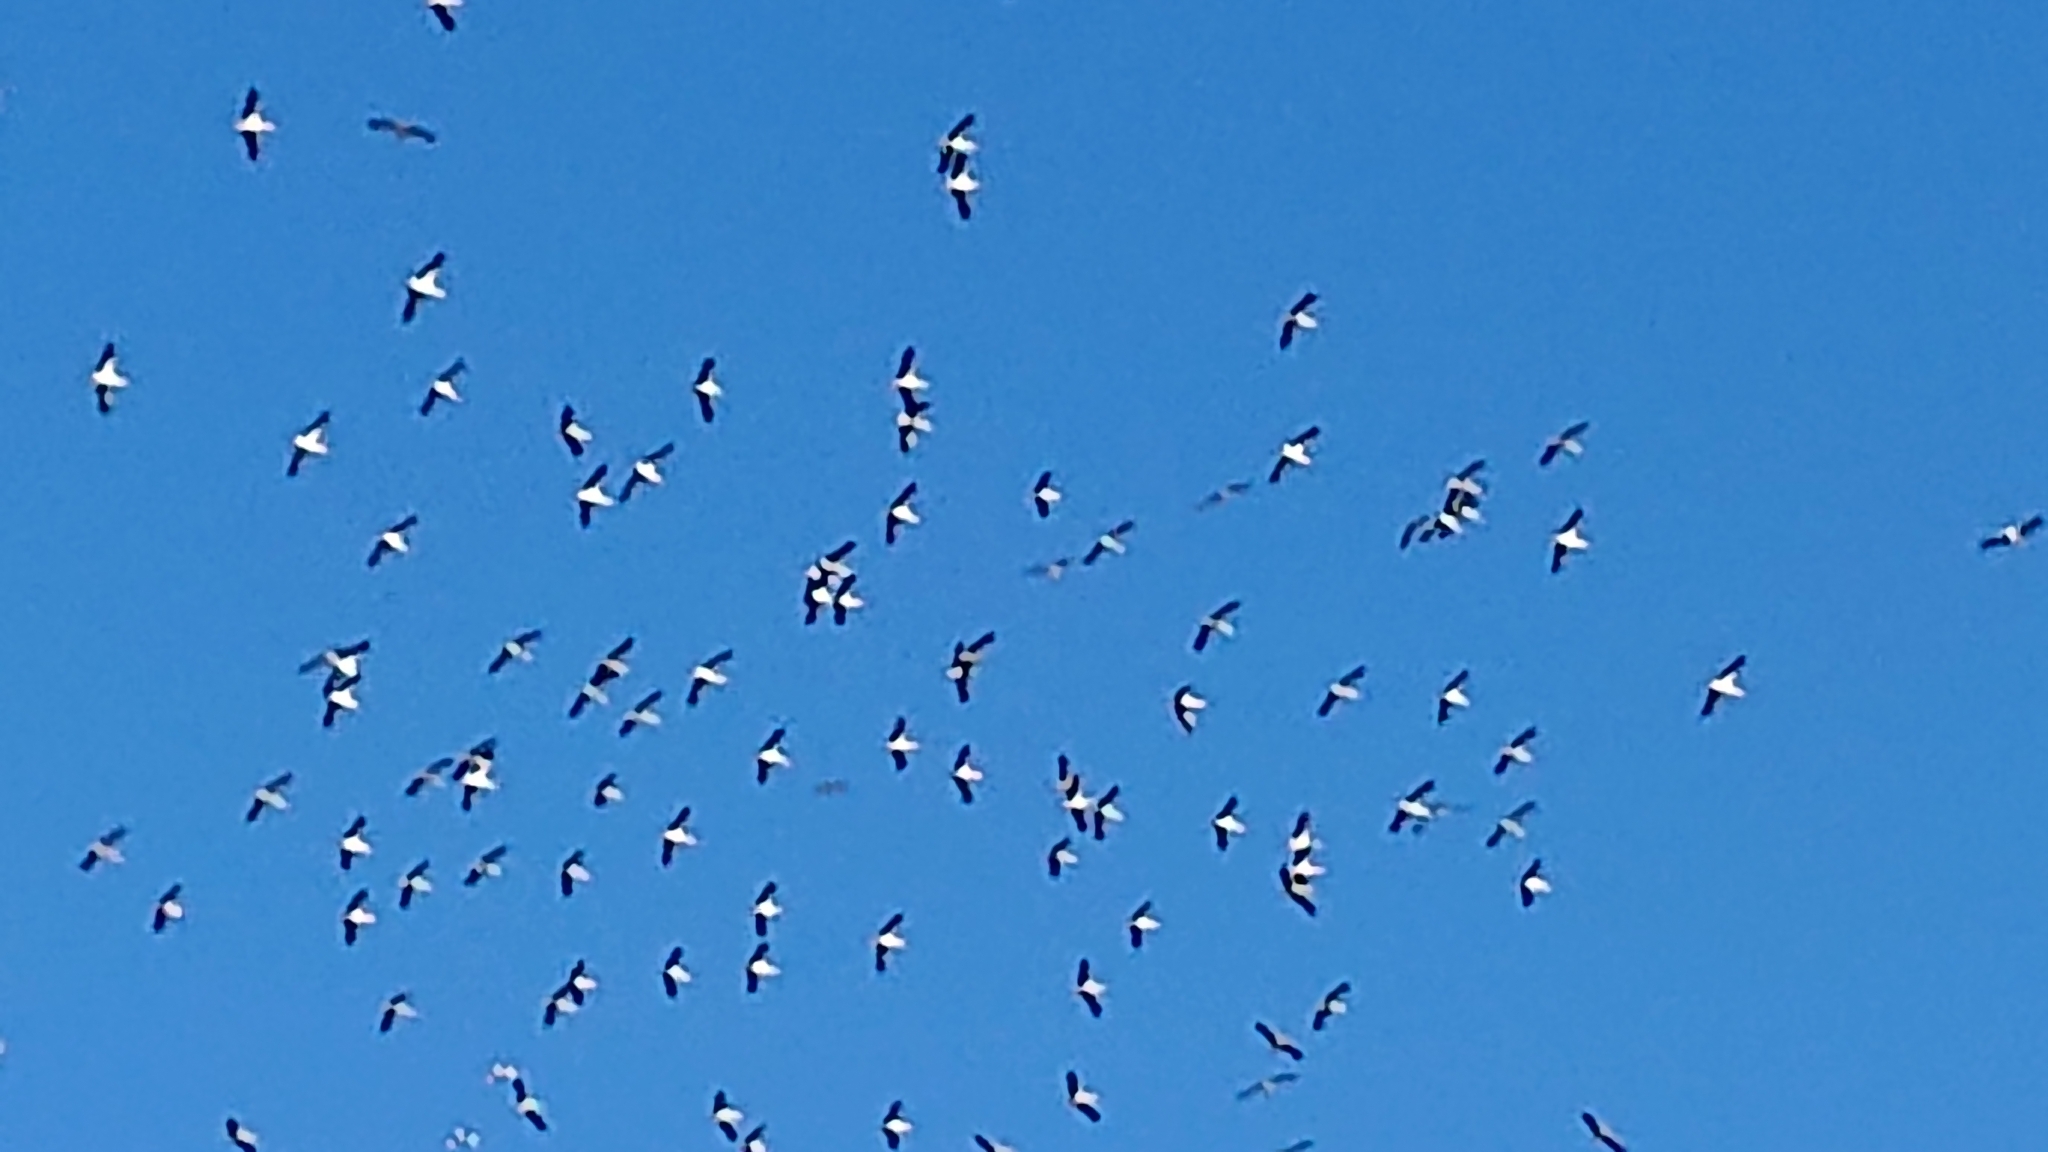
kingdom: Animalia
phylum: Chordata
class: Aves
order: Ciconiiformes
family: Ciconiidae
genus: Ciconia
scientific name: Ciconia ciconia
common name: White stork
